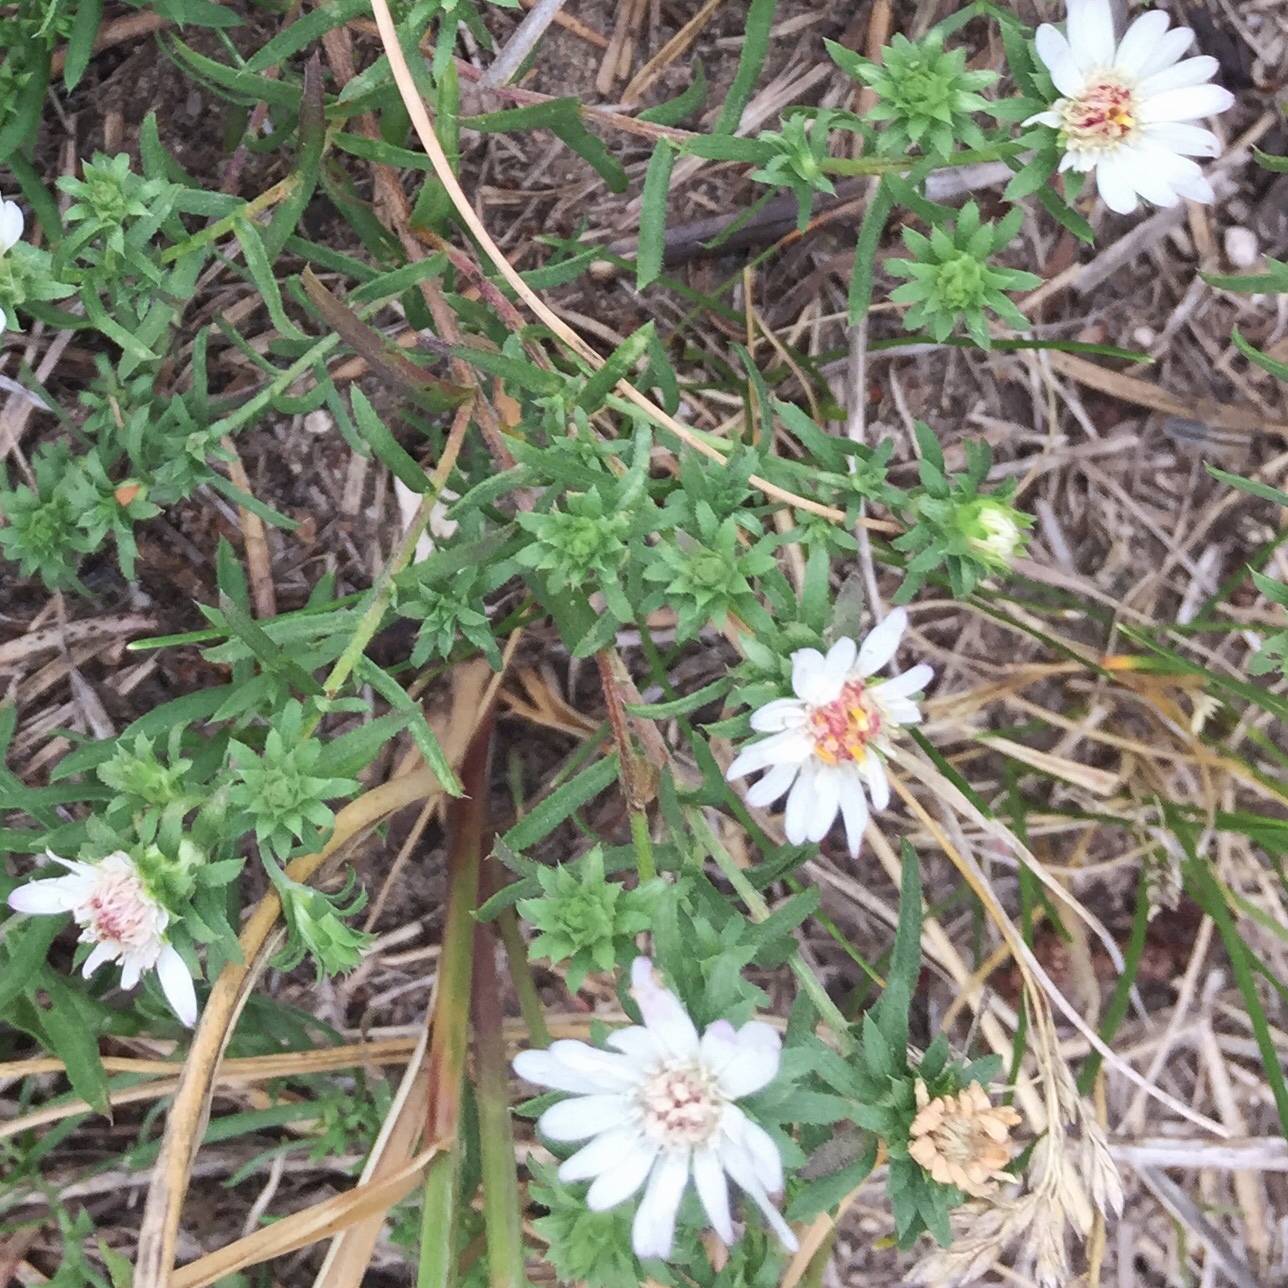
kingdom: Plantae
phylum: Tracheophyta
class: Magnoliopsida
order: Asterales
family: Asteraceae
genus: Symphyotrichum
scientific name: Symphyotrichum ericoides
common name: Heath aster
